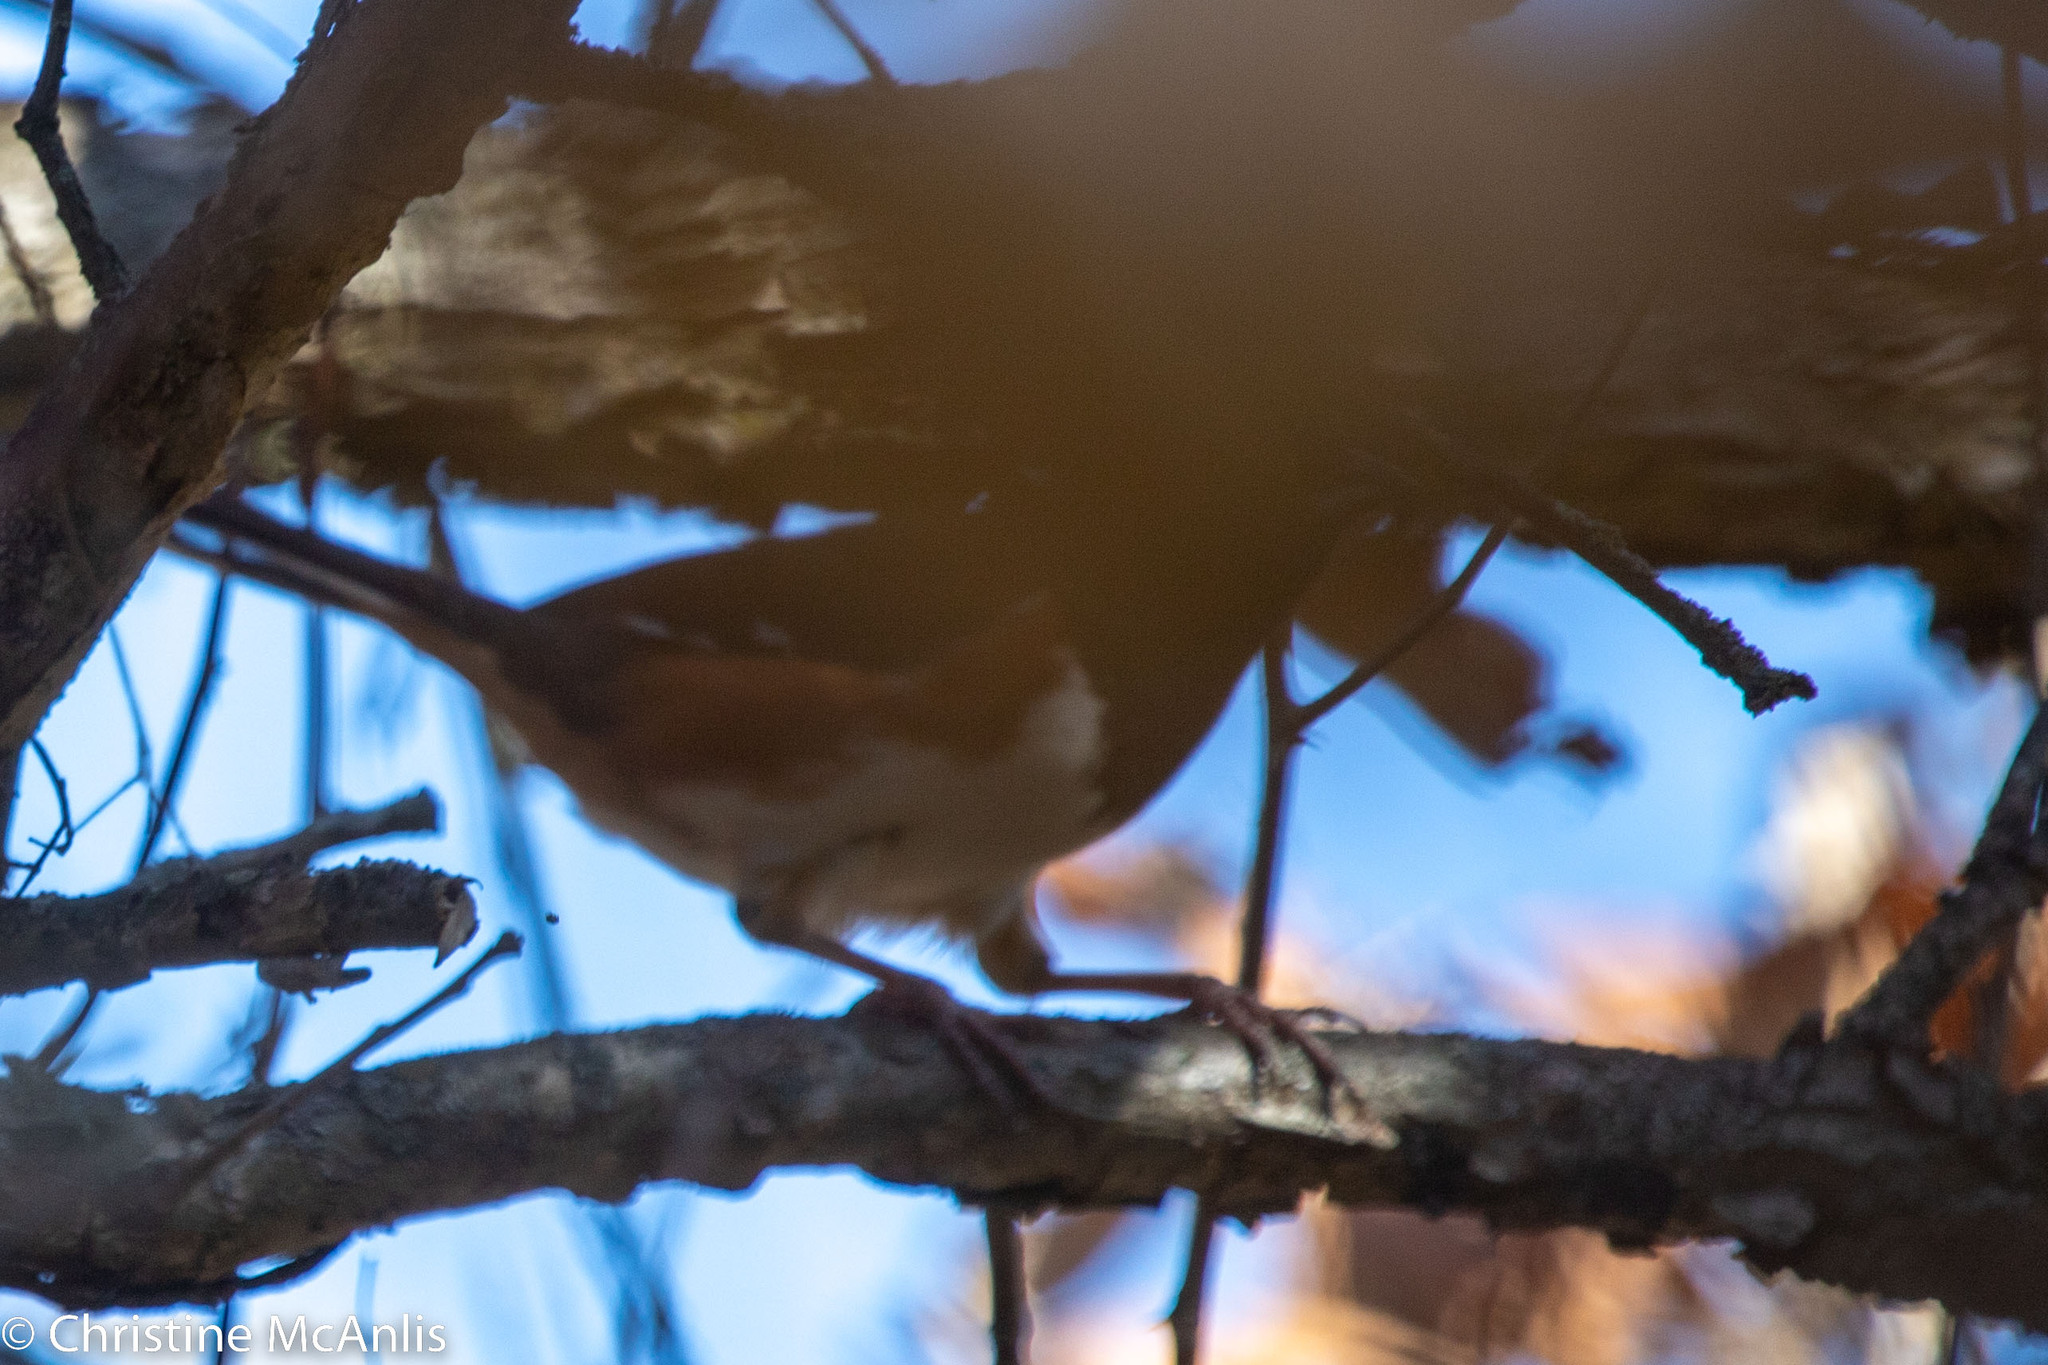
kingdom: Animalia
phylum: Chordata
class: Aves
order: Passeriformes
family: Passerellidae
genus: Pipilo
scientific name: Pipilo erythrophthalmus
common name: Eastern towhee
